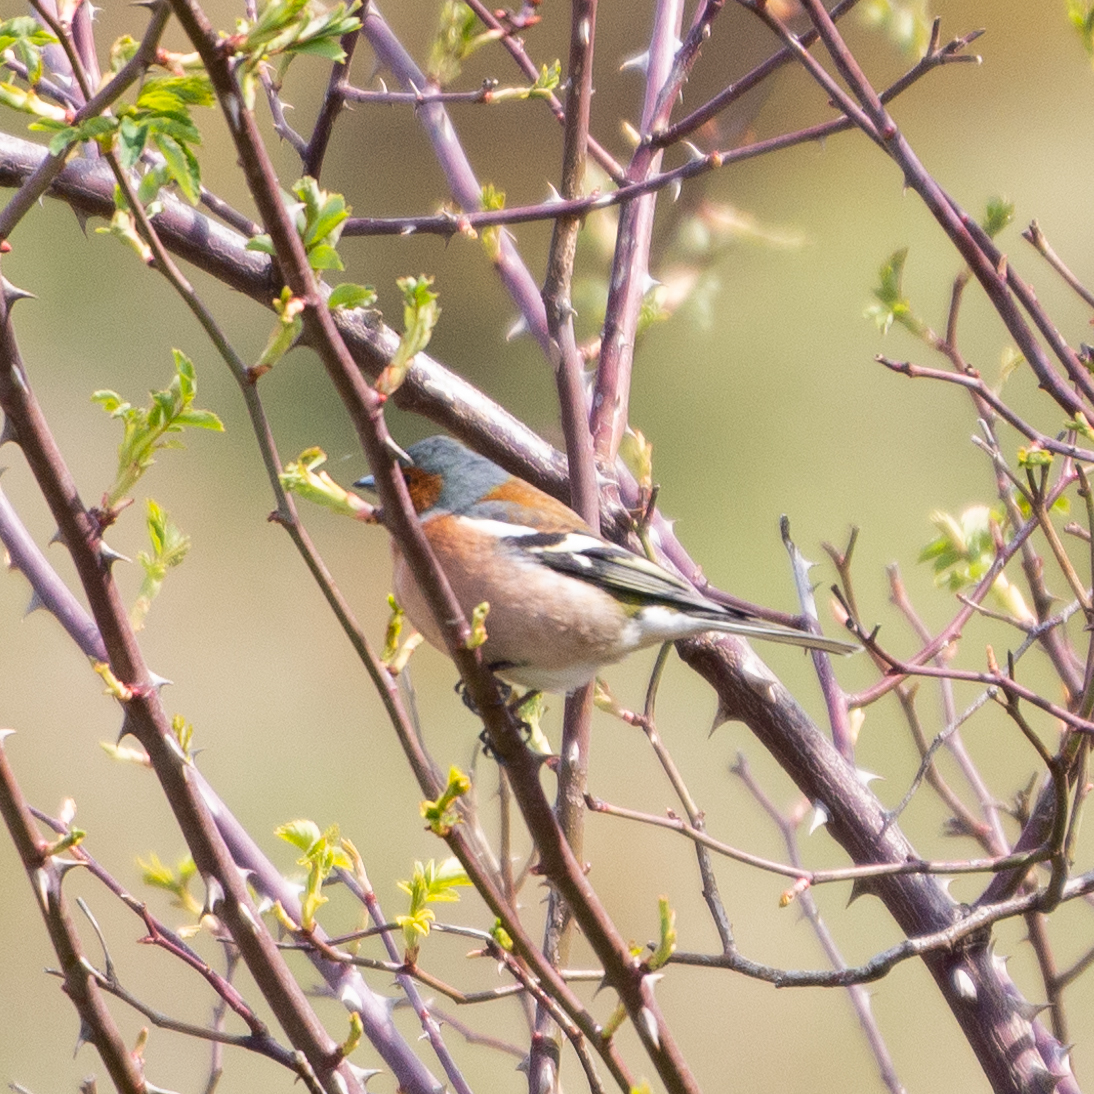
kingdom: Animalia
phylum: Chordata
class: Aves
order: Passeriformes
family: Fringillidae
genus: Fringilla
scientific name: Fringilla coelebs
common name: Common chaffinch
